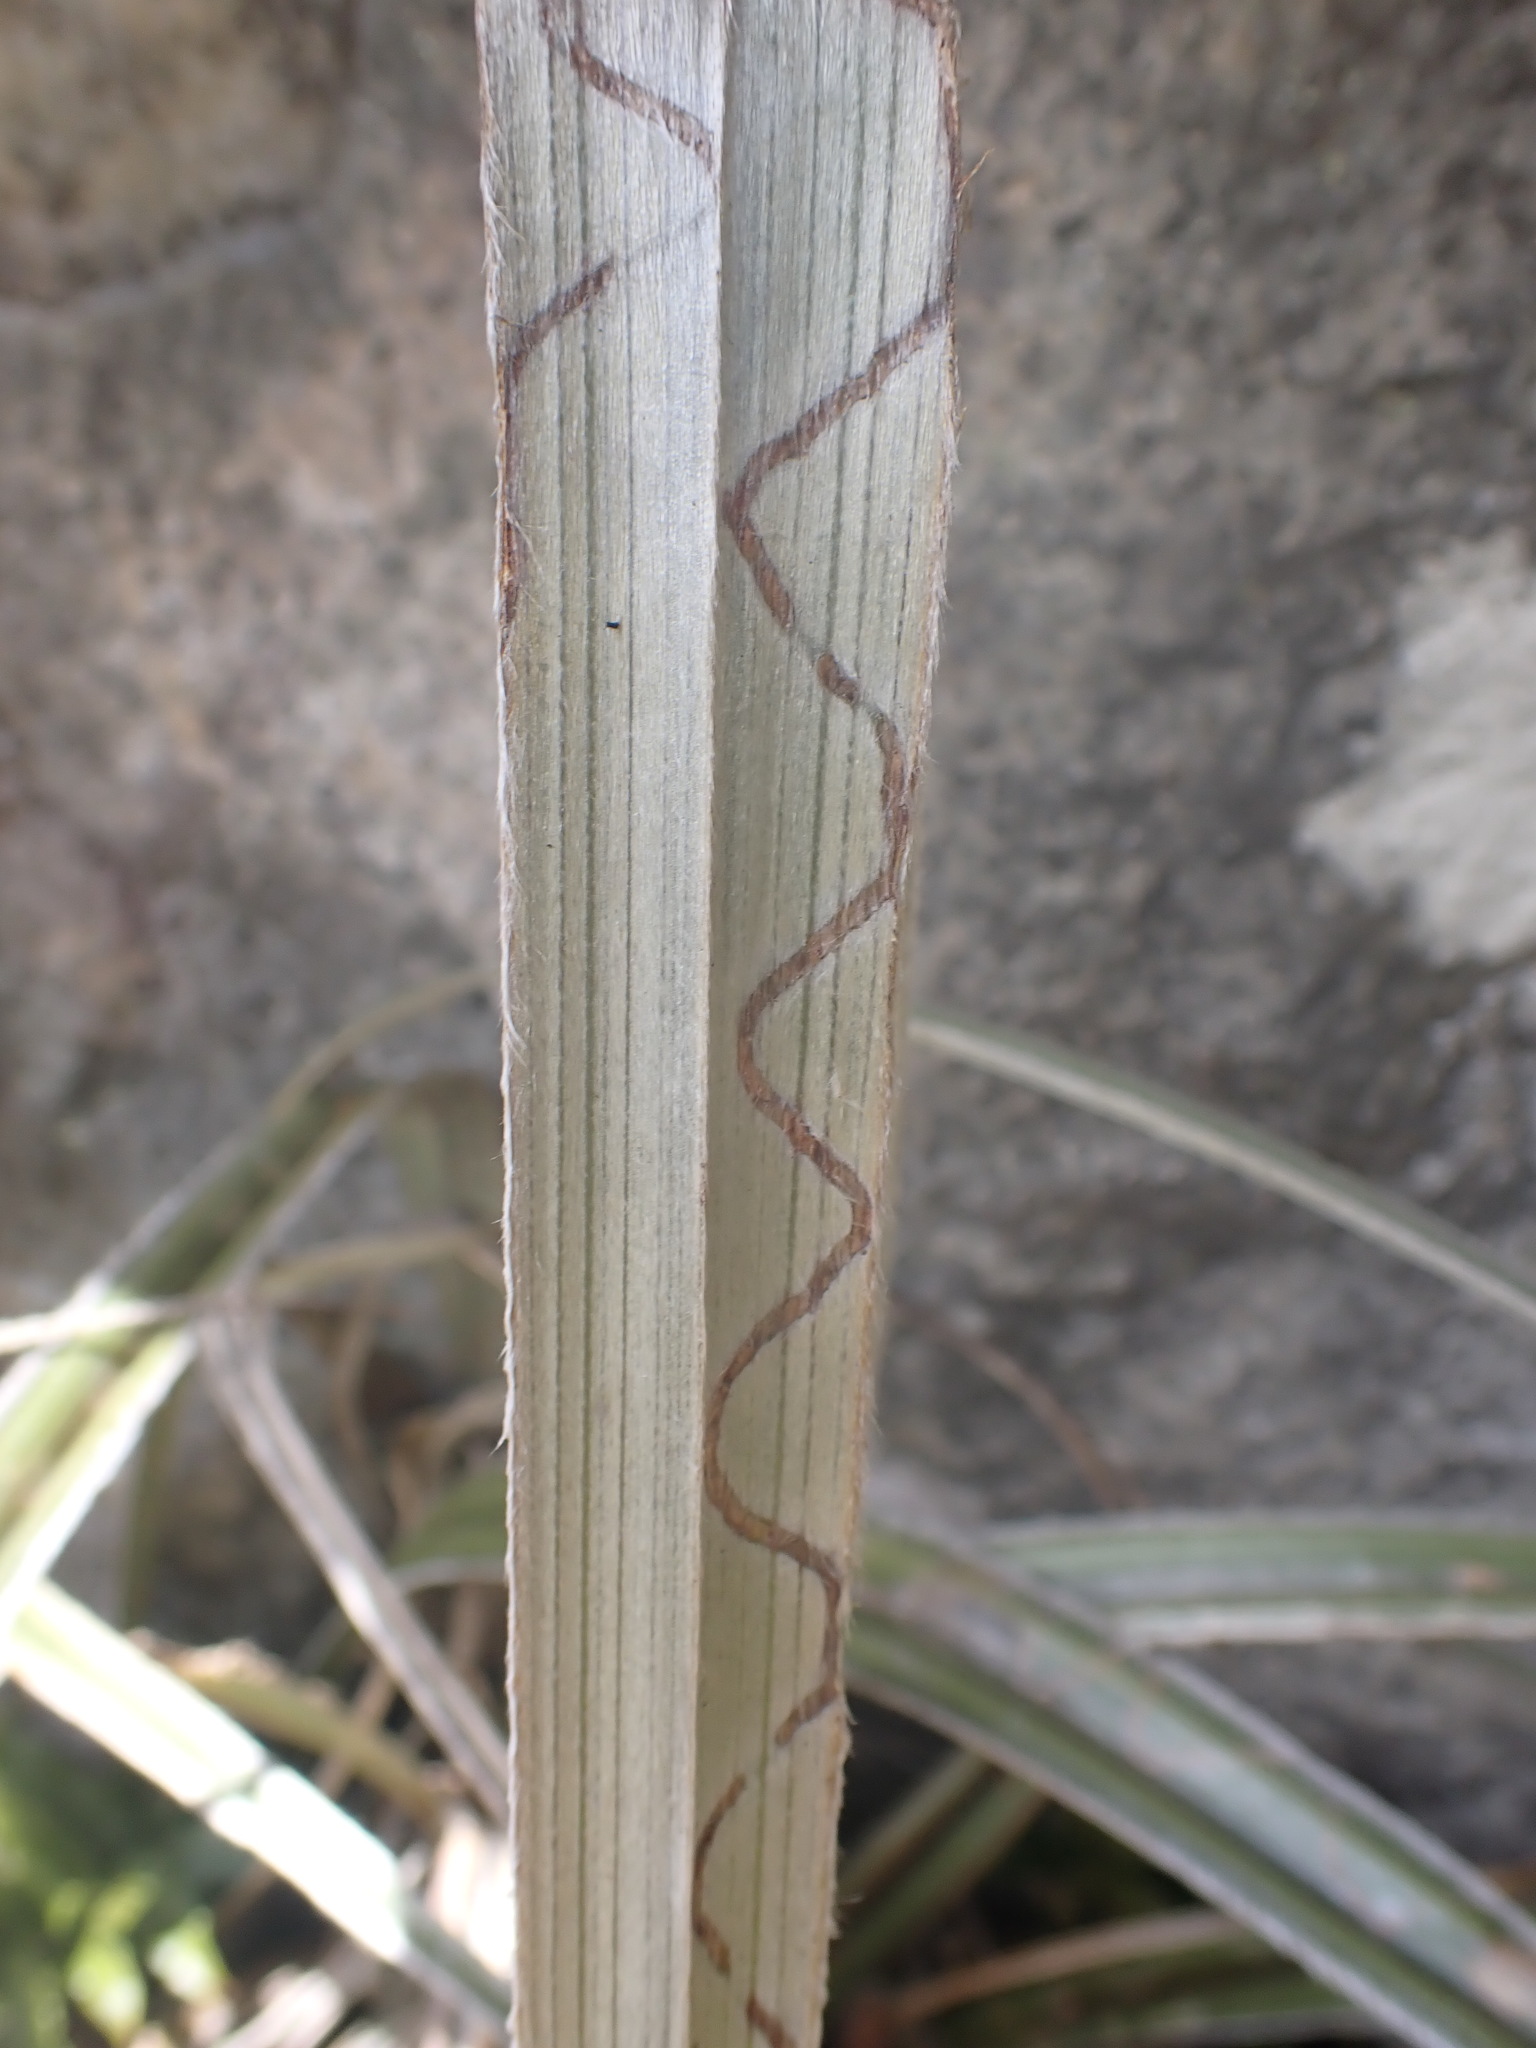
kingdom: Animalia
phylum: Arthropoda
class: Insecta
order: Lepidoptera
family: Plutellidae
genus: Charixena
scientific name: Charixena iridoxa
